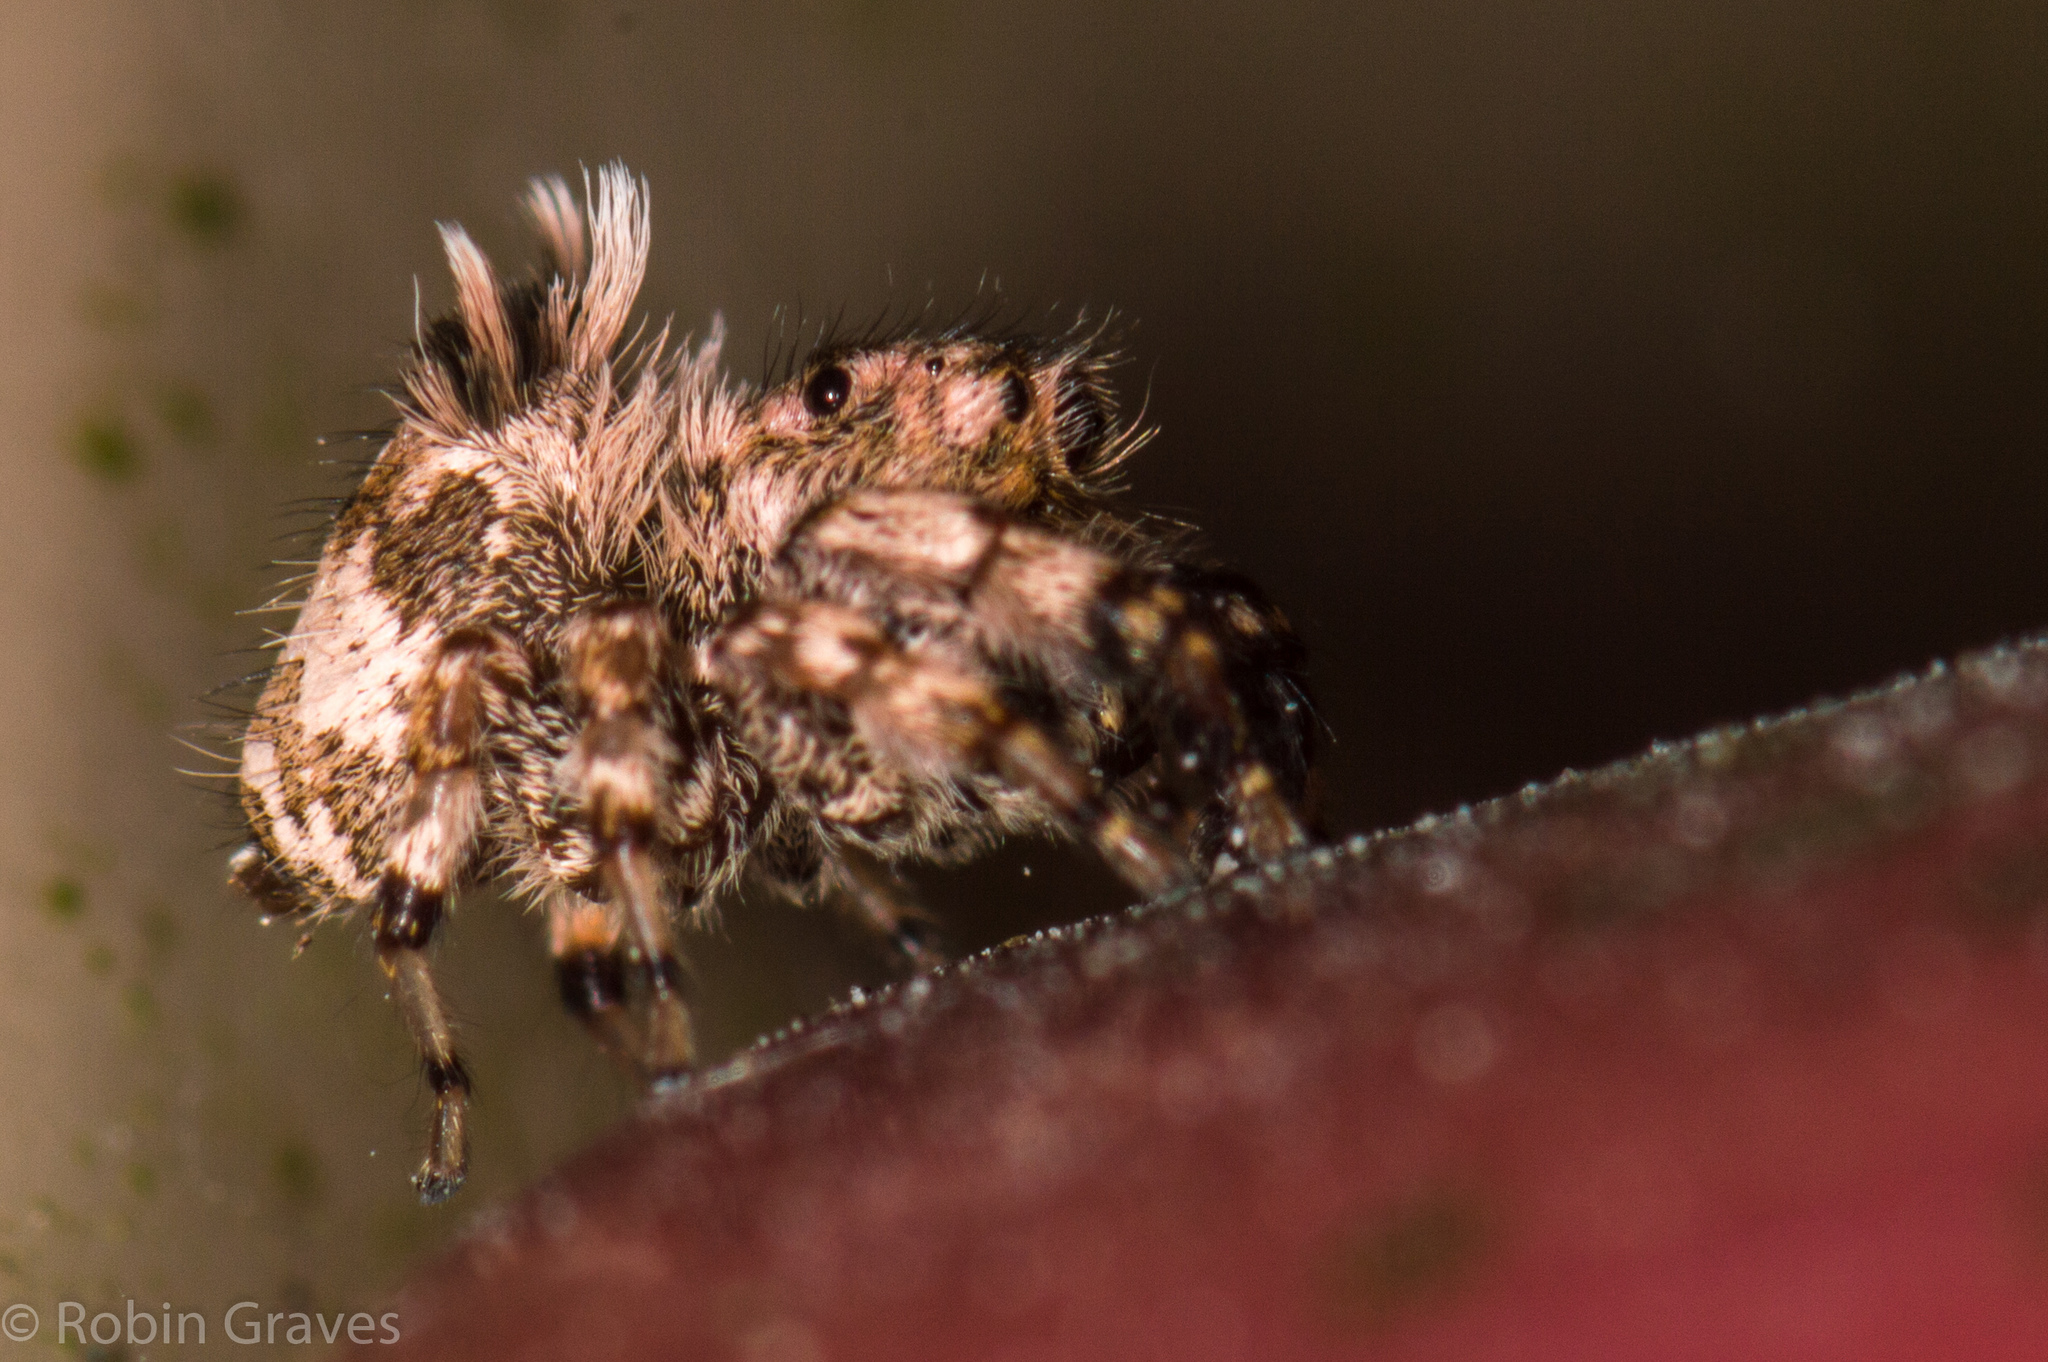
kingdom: Animalia
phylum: Arthropoda
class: Arachnida
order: Araneae
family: Salticidae
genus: Beata
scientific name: Beata hispida
